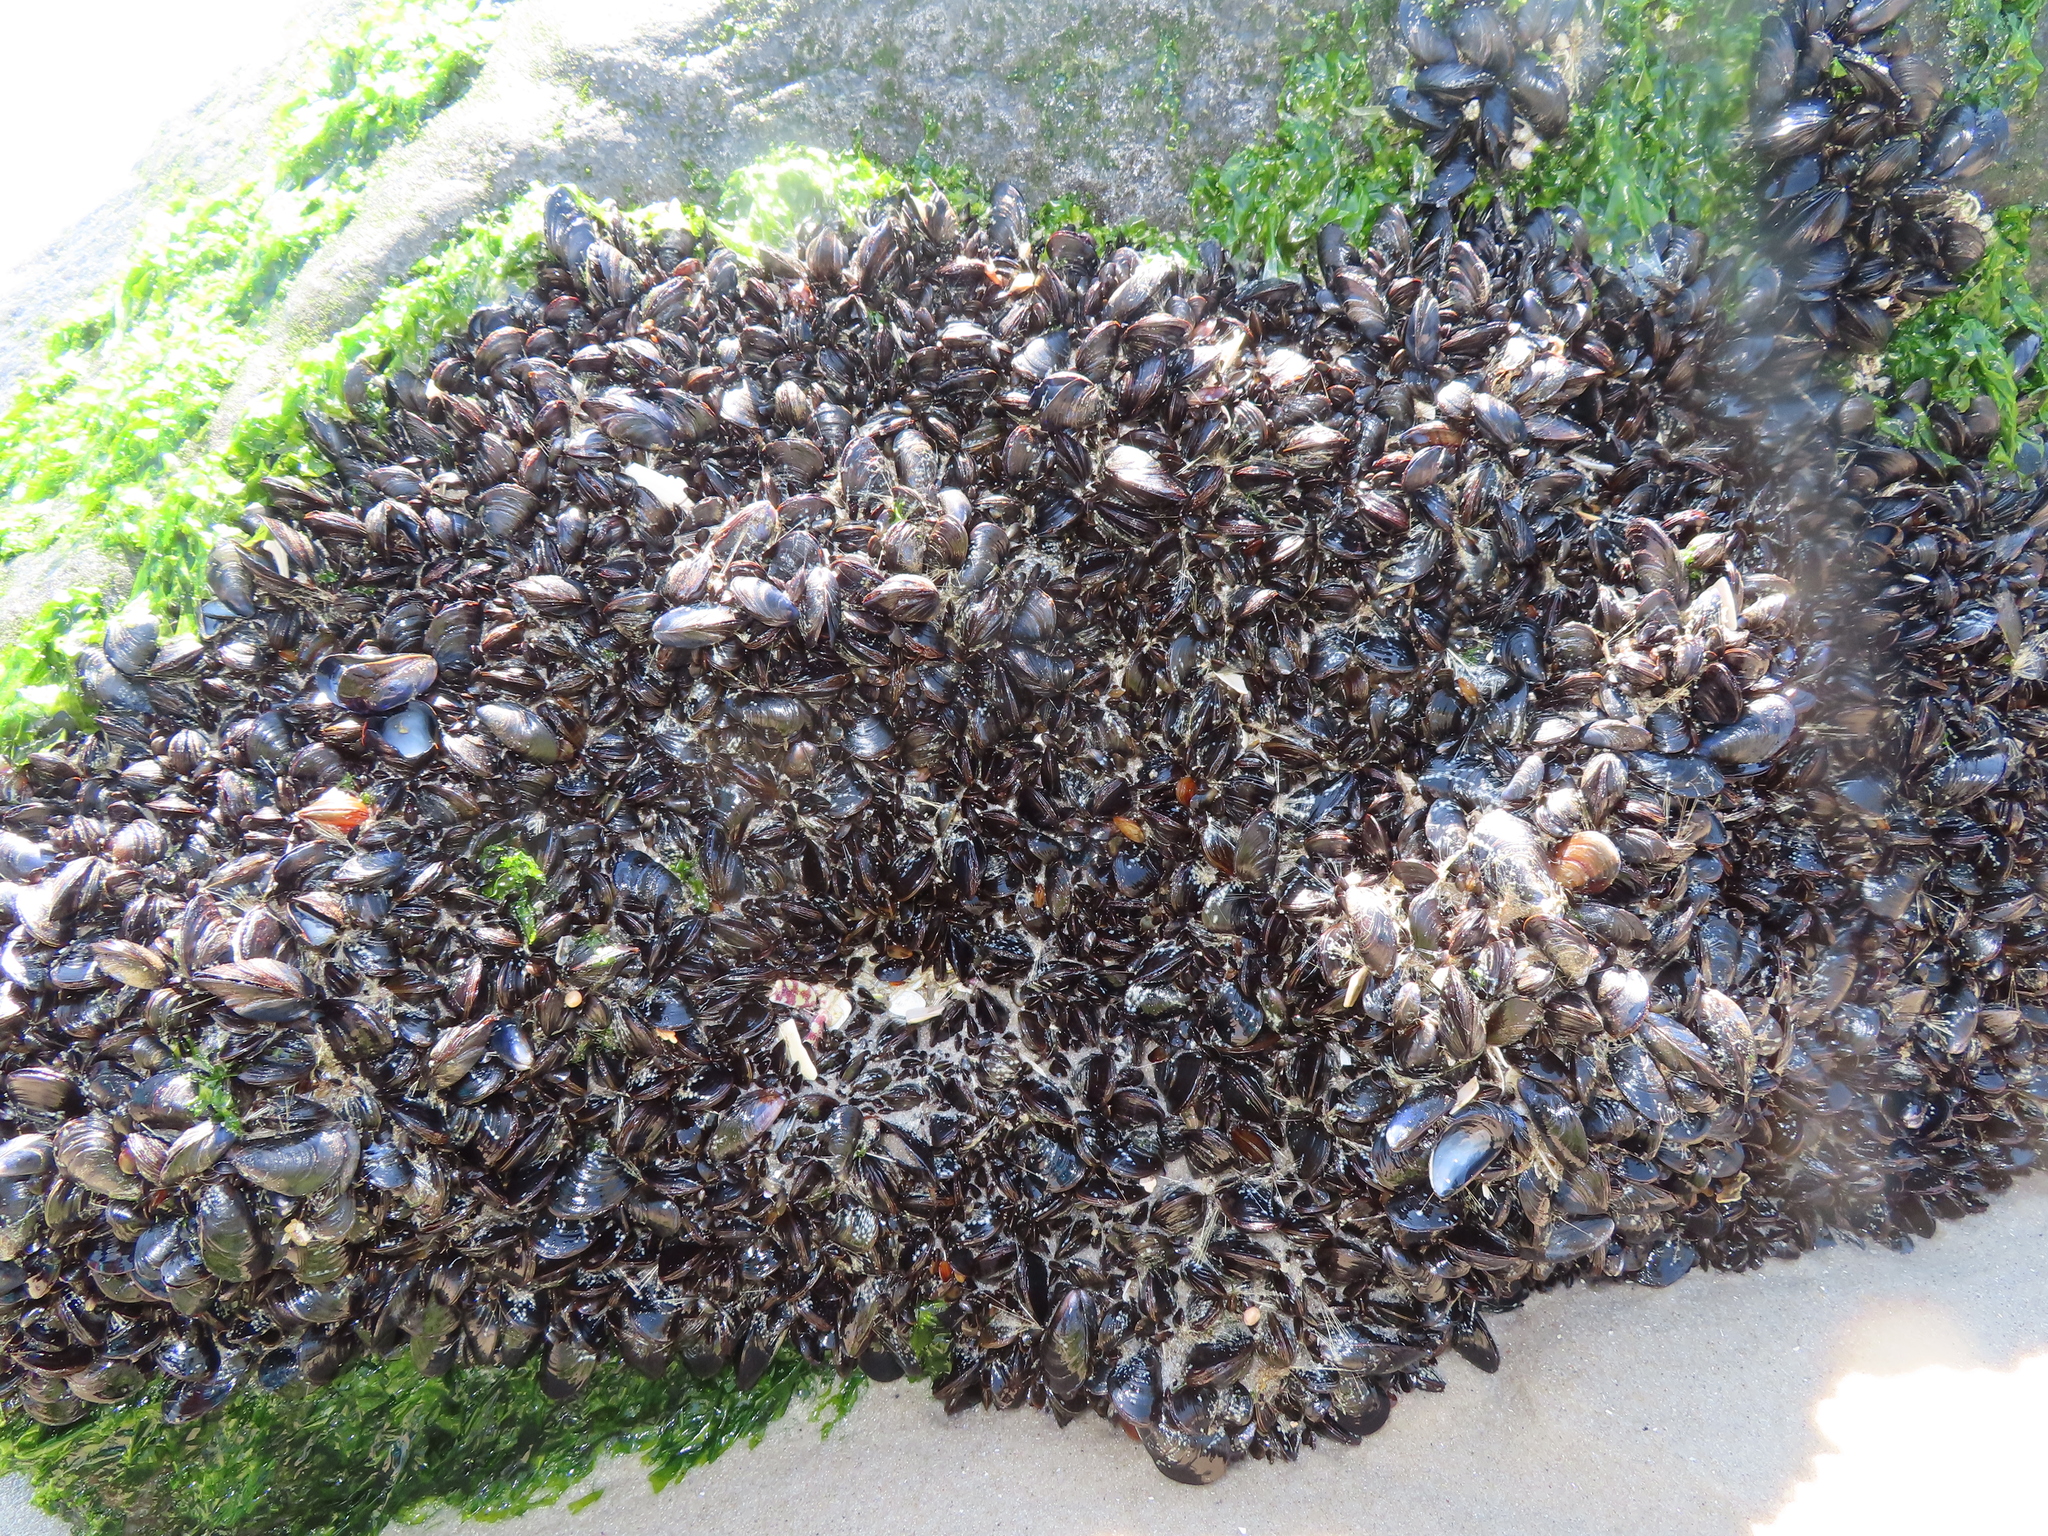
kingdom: Animalia
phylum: Mollusca
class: Bivalvia
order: Mytilida
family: Mytilidae
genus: Mytilus
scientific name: Mytilus edulis
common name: Blue mussel
